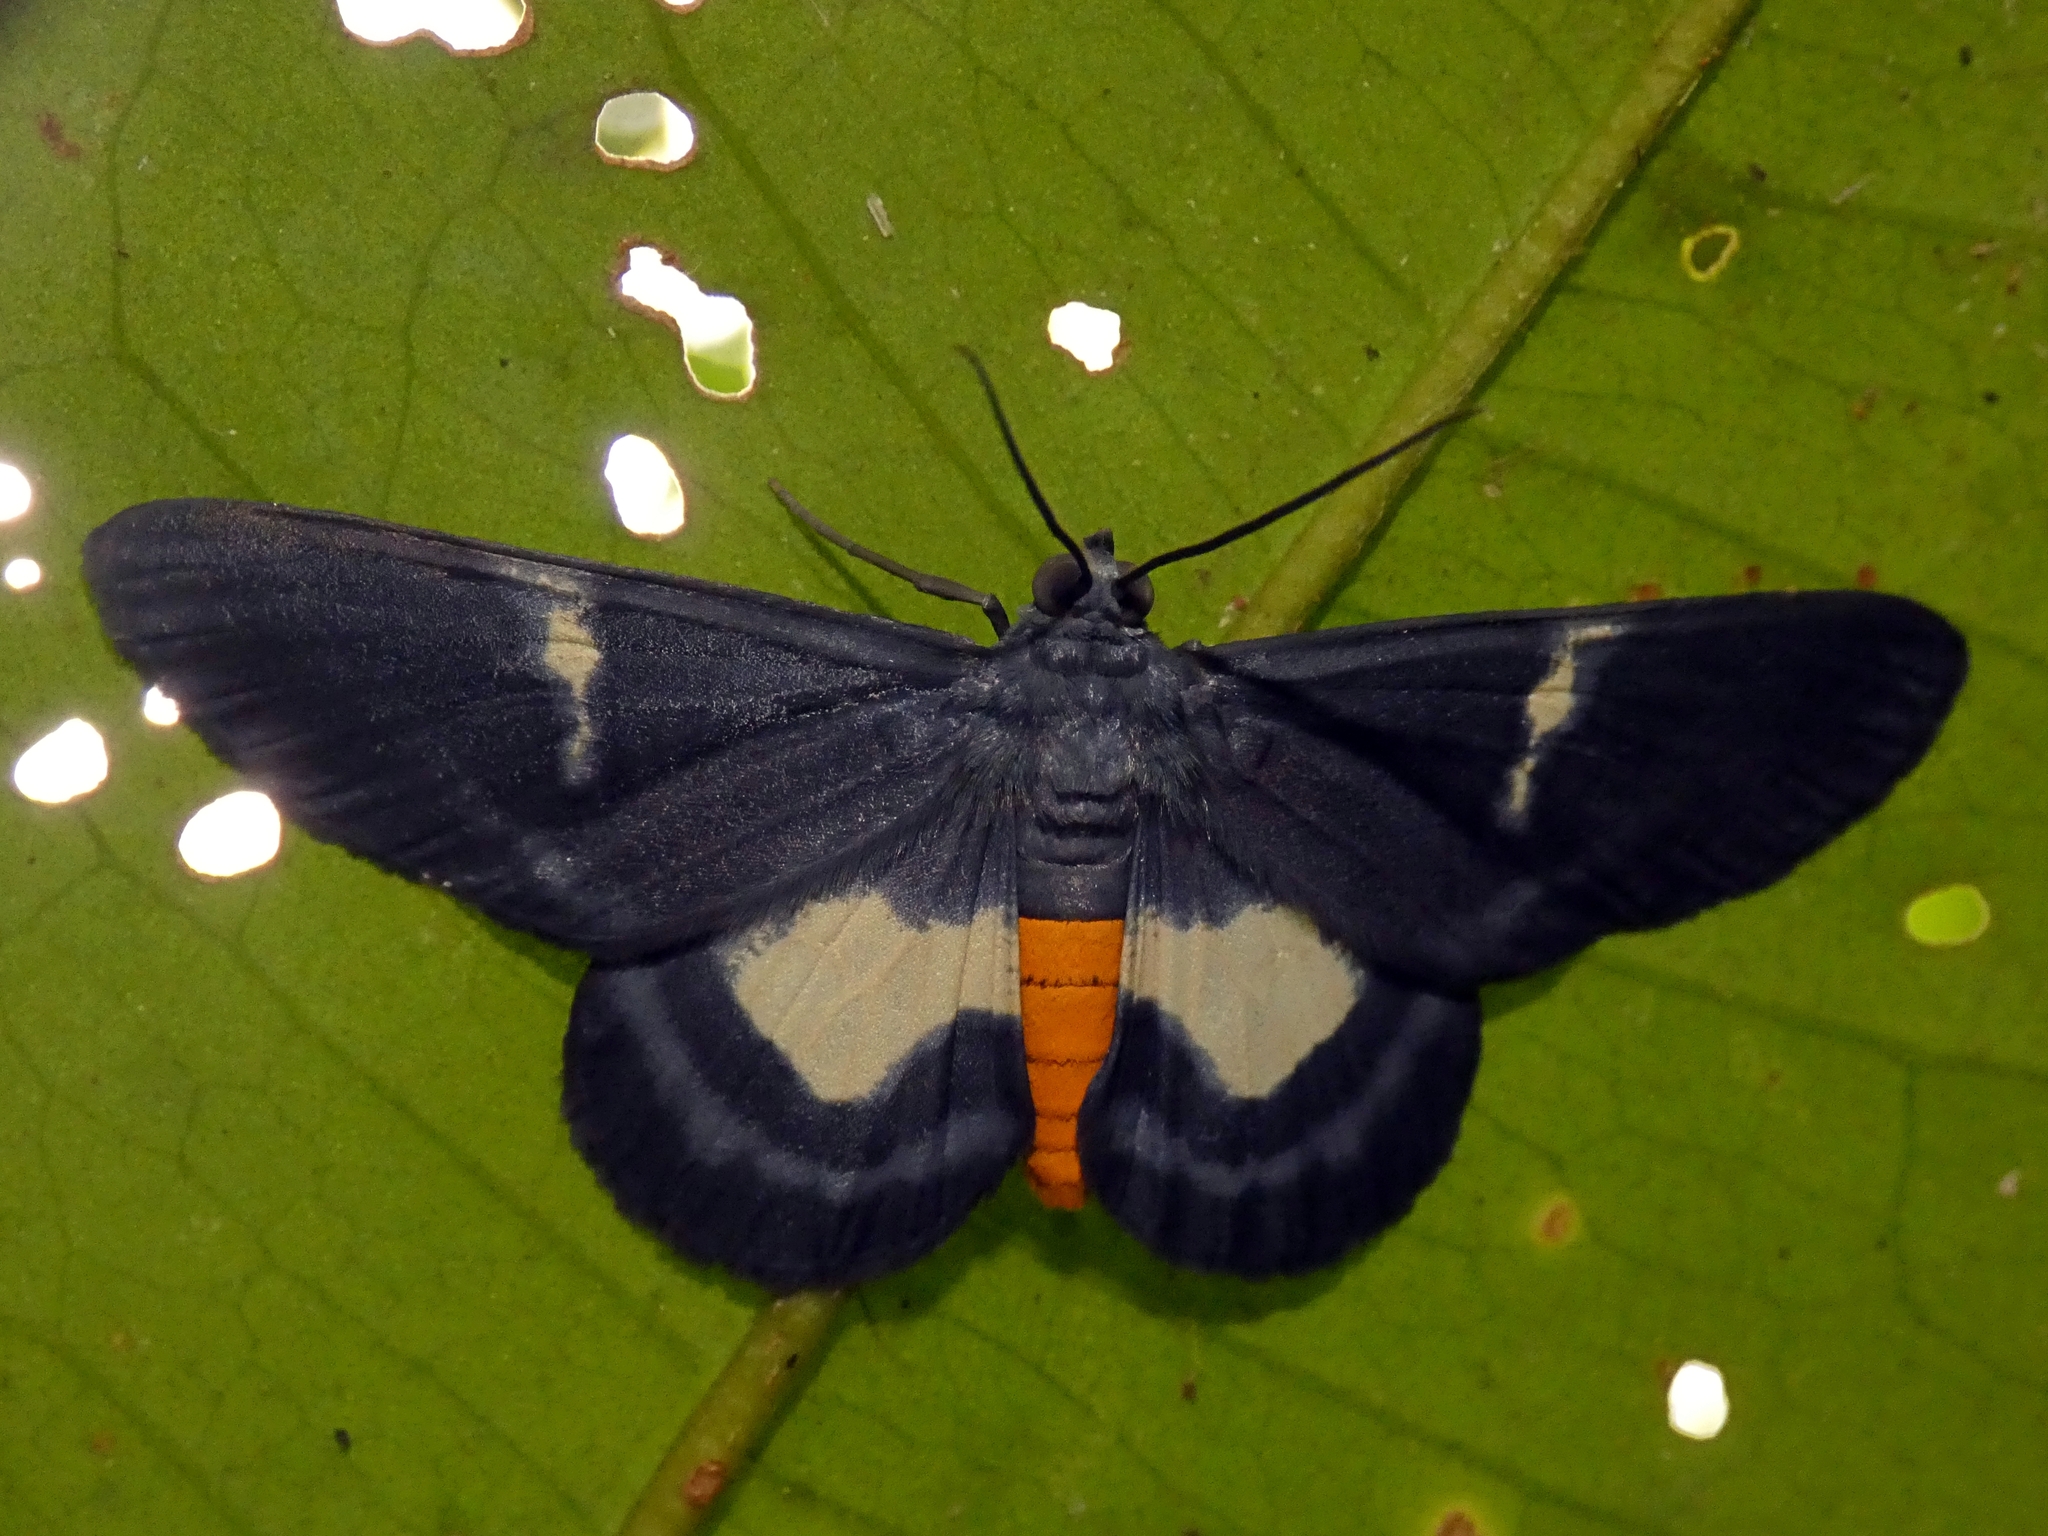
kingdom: Animalia
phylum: Arthropoda
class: Insecta
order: Lepidoptera
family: Geometridae
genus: Craspedosis
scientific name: Craspedosis leucosticta
